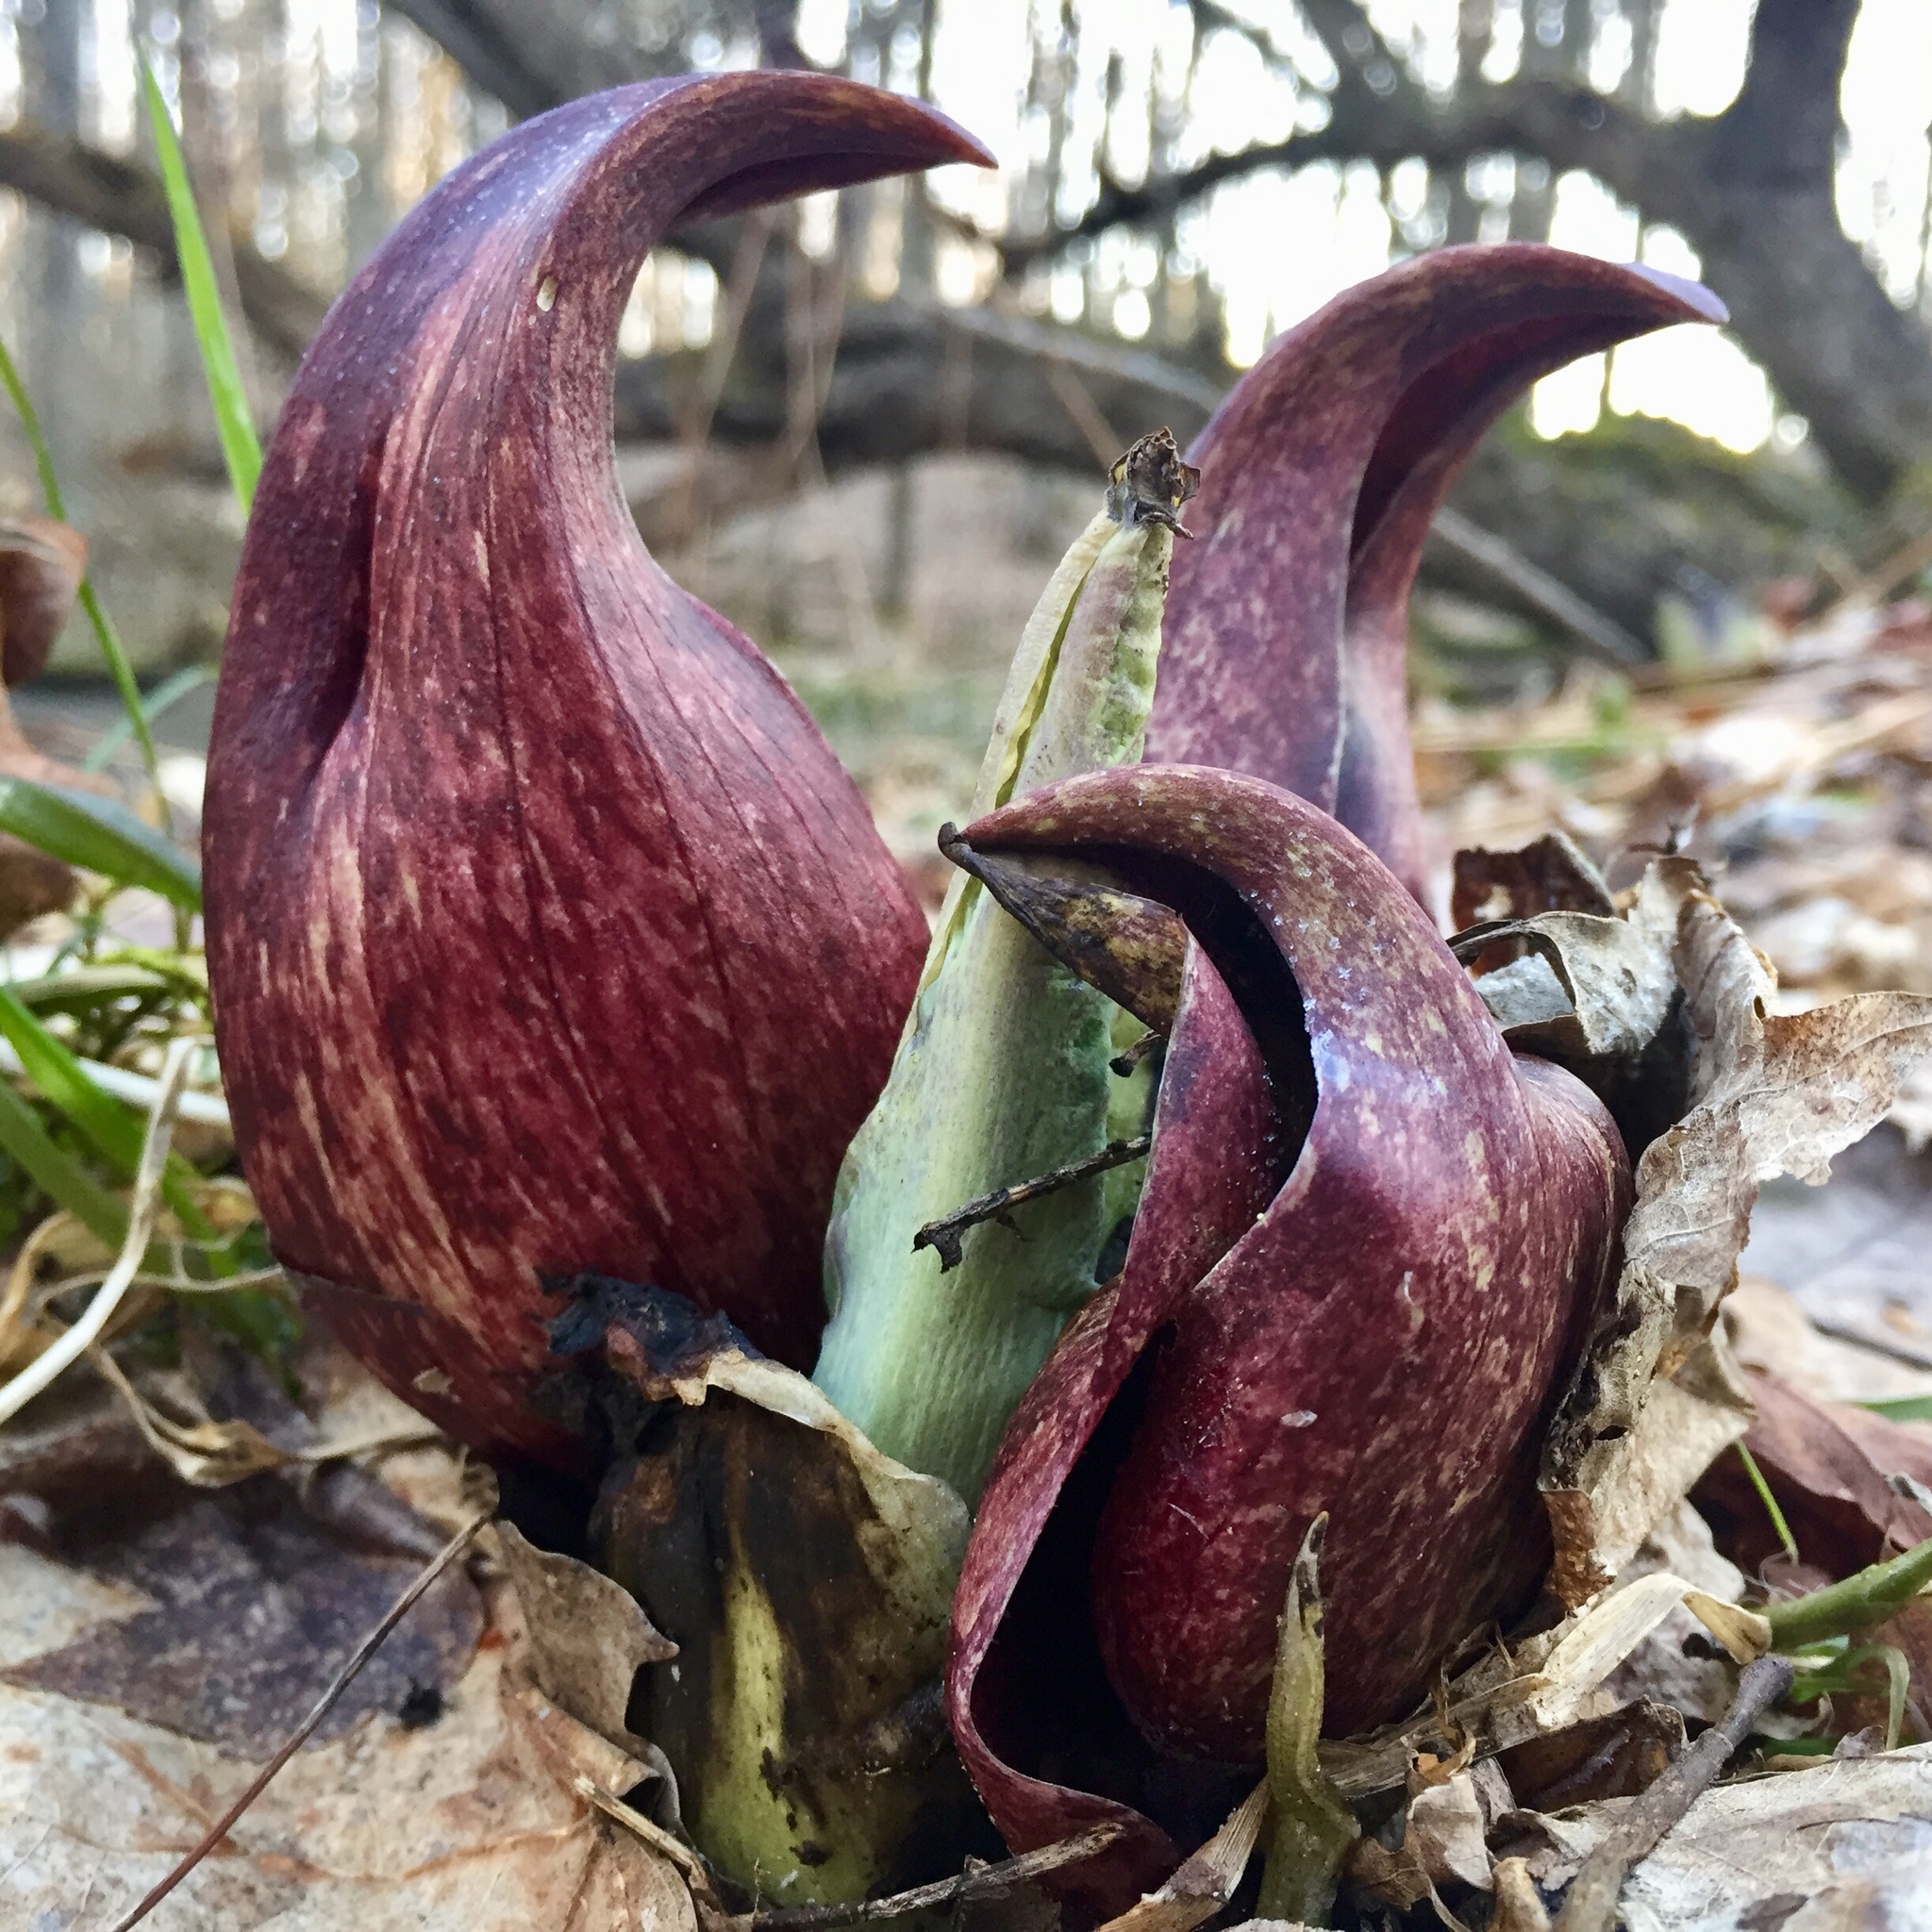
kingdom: Plantae
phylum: Tracheophyta
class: Liliopsida
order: Alismatales
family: Araceae
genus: Symplocarpus
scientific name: Symplocarpus foetidus
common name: Eastern skunk cabbage
